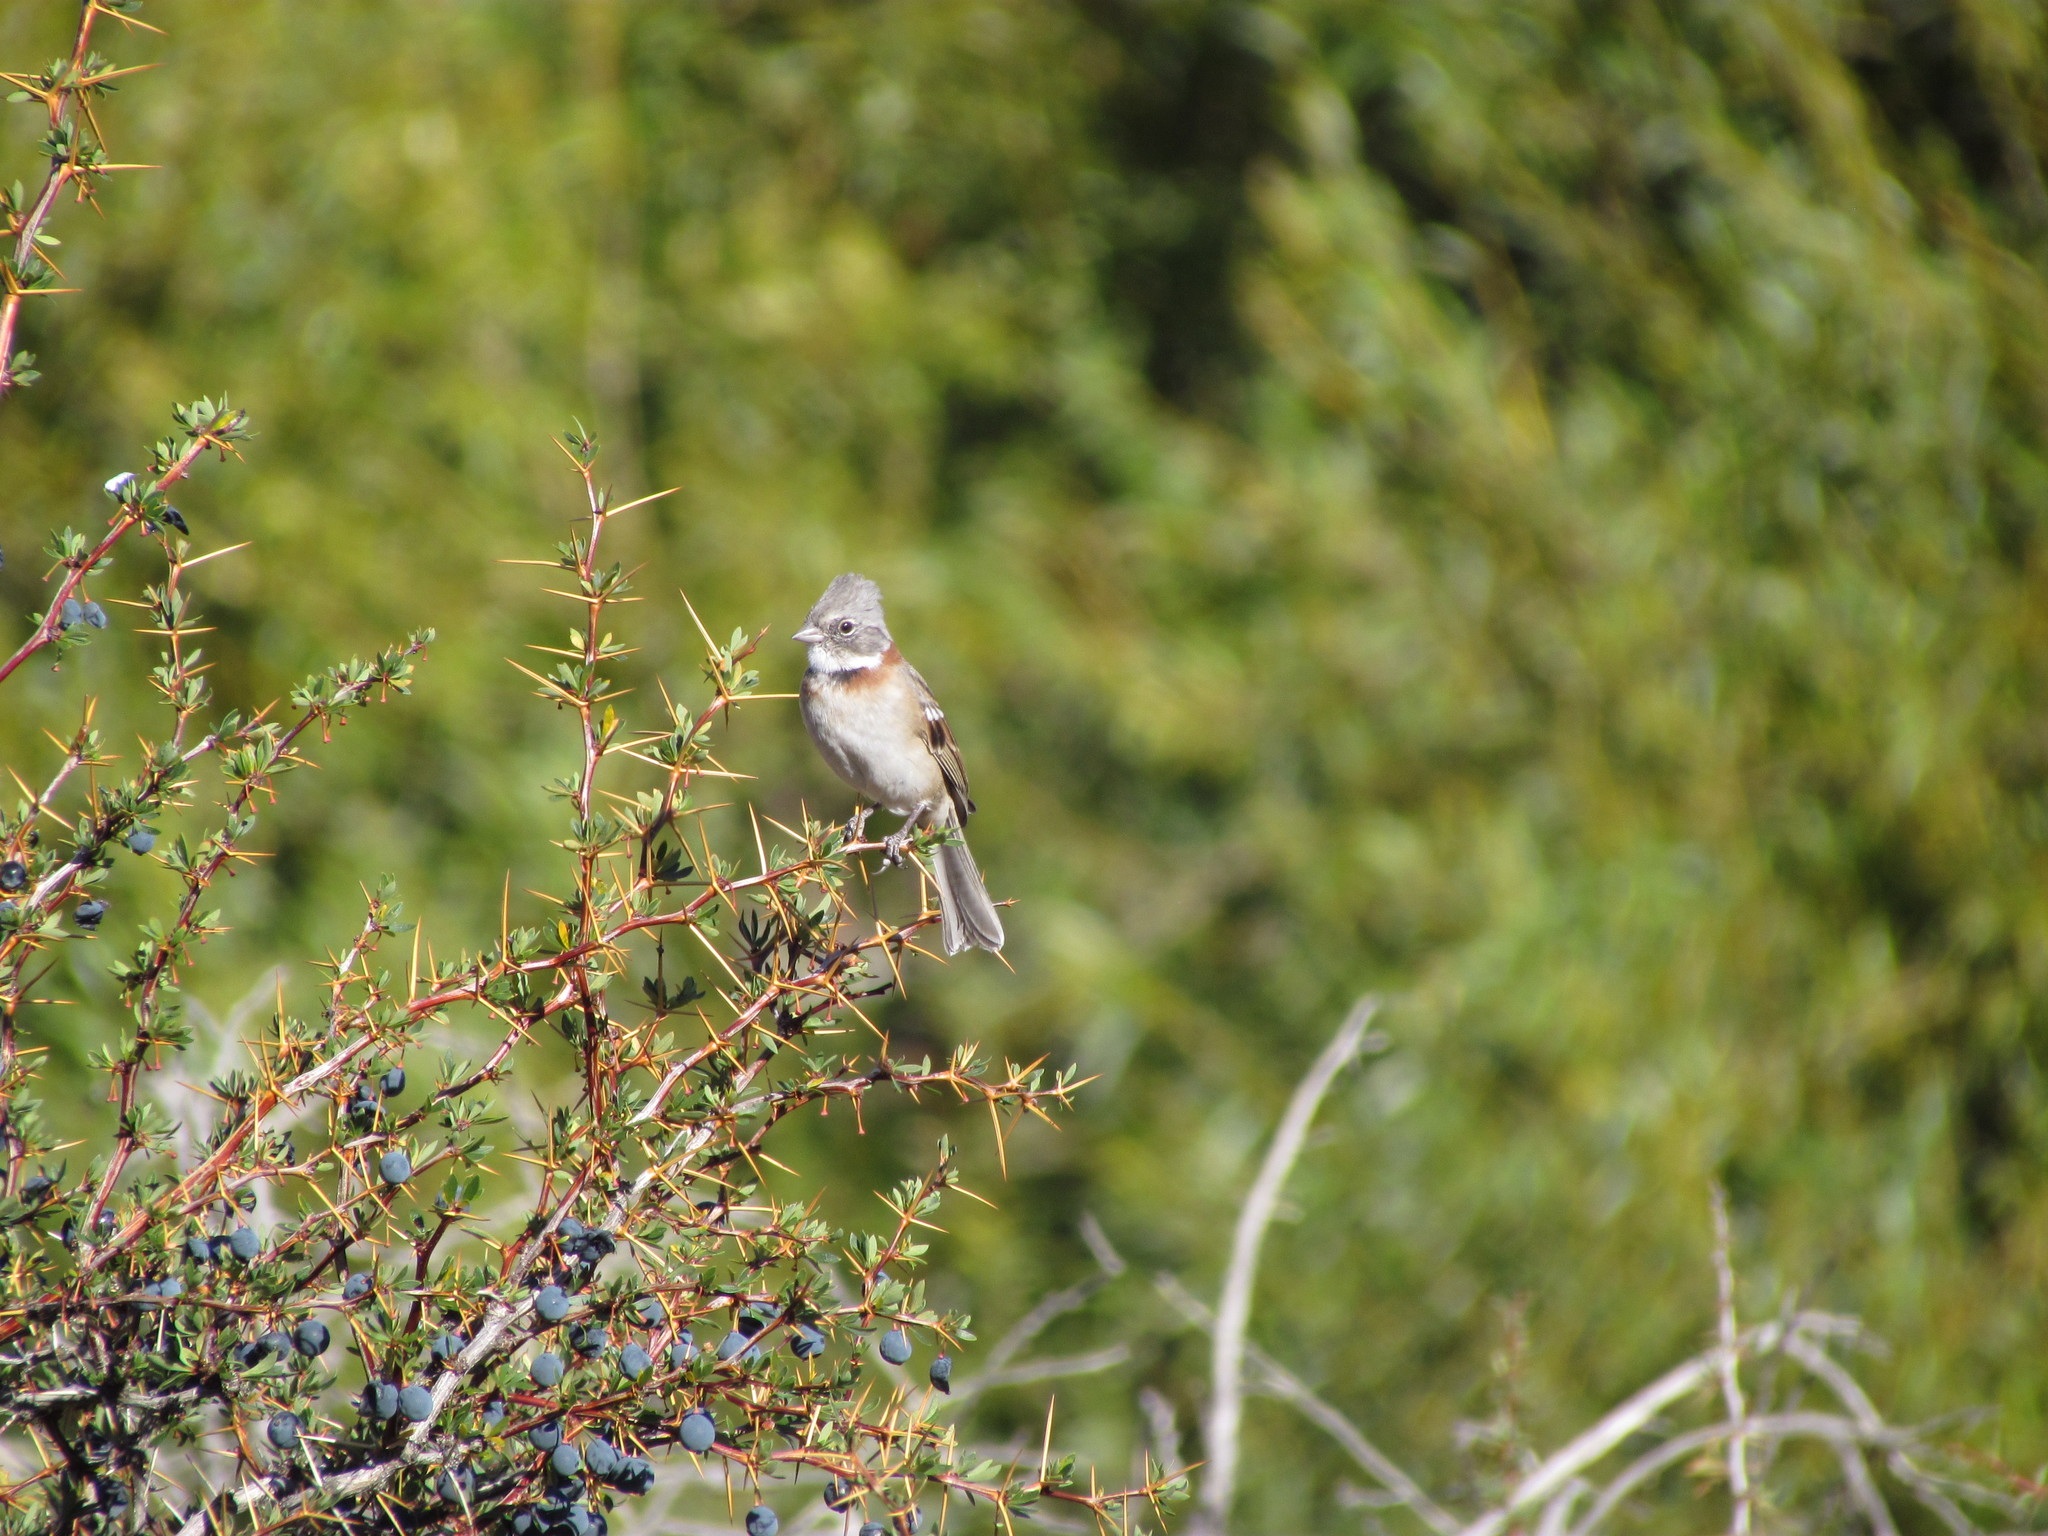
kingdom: Animalia
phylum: Chordata
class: Aves
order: Passeriformes
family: Passerellidae
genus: Zonotrichia
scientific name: Zonotrichia capensis
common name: Rufous-collared sparrow
